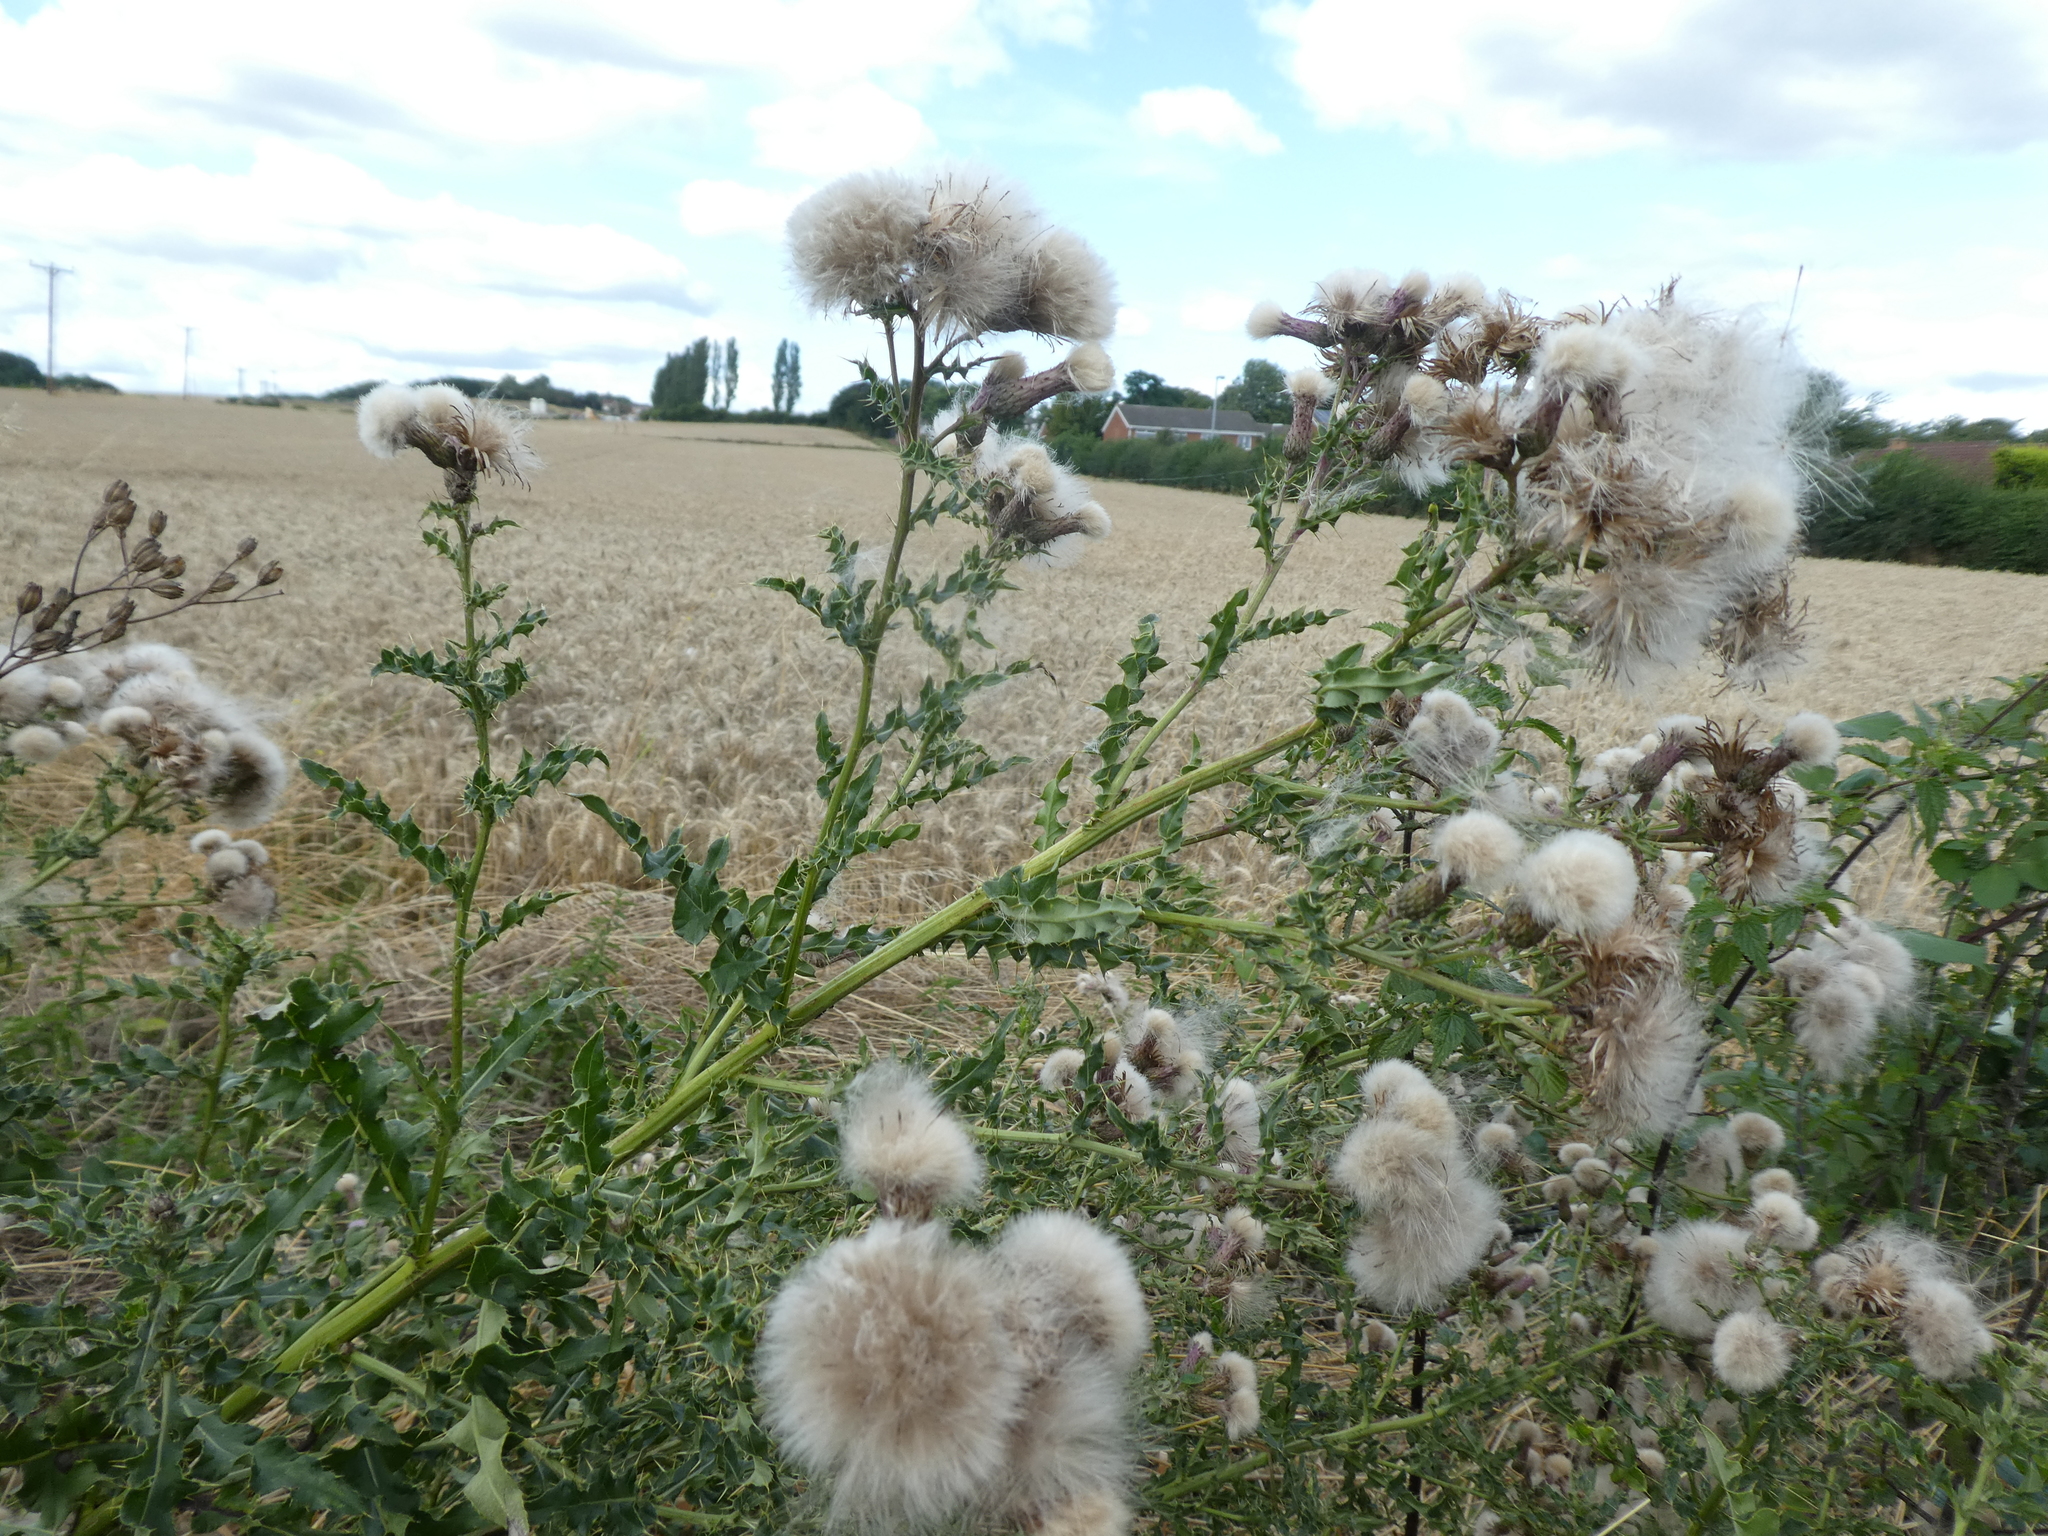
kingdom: Plantae
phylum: Tracheophyta
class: Magnoliopsida
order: Asterales
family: Asteraceae
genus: Cirsium
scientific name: Cirsium arvense
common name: Creeping thistle
